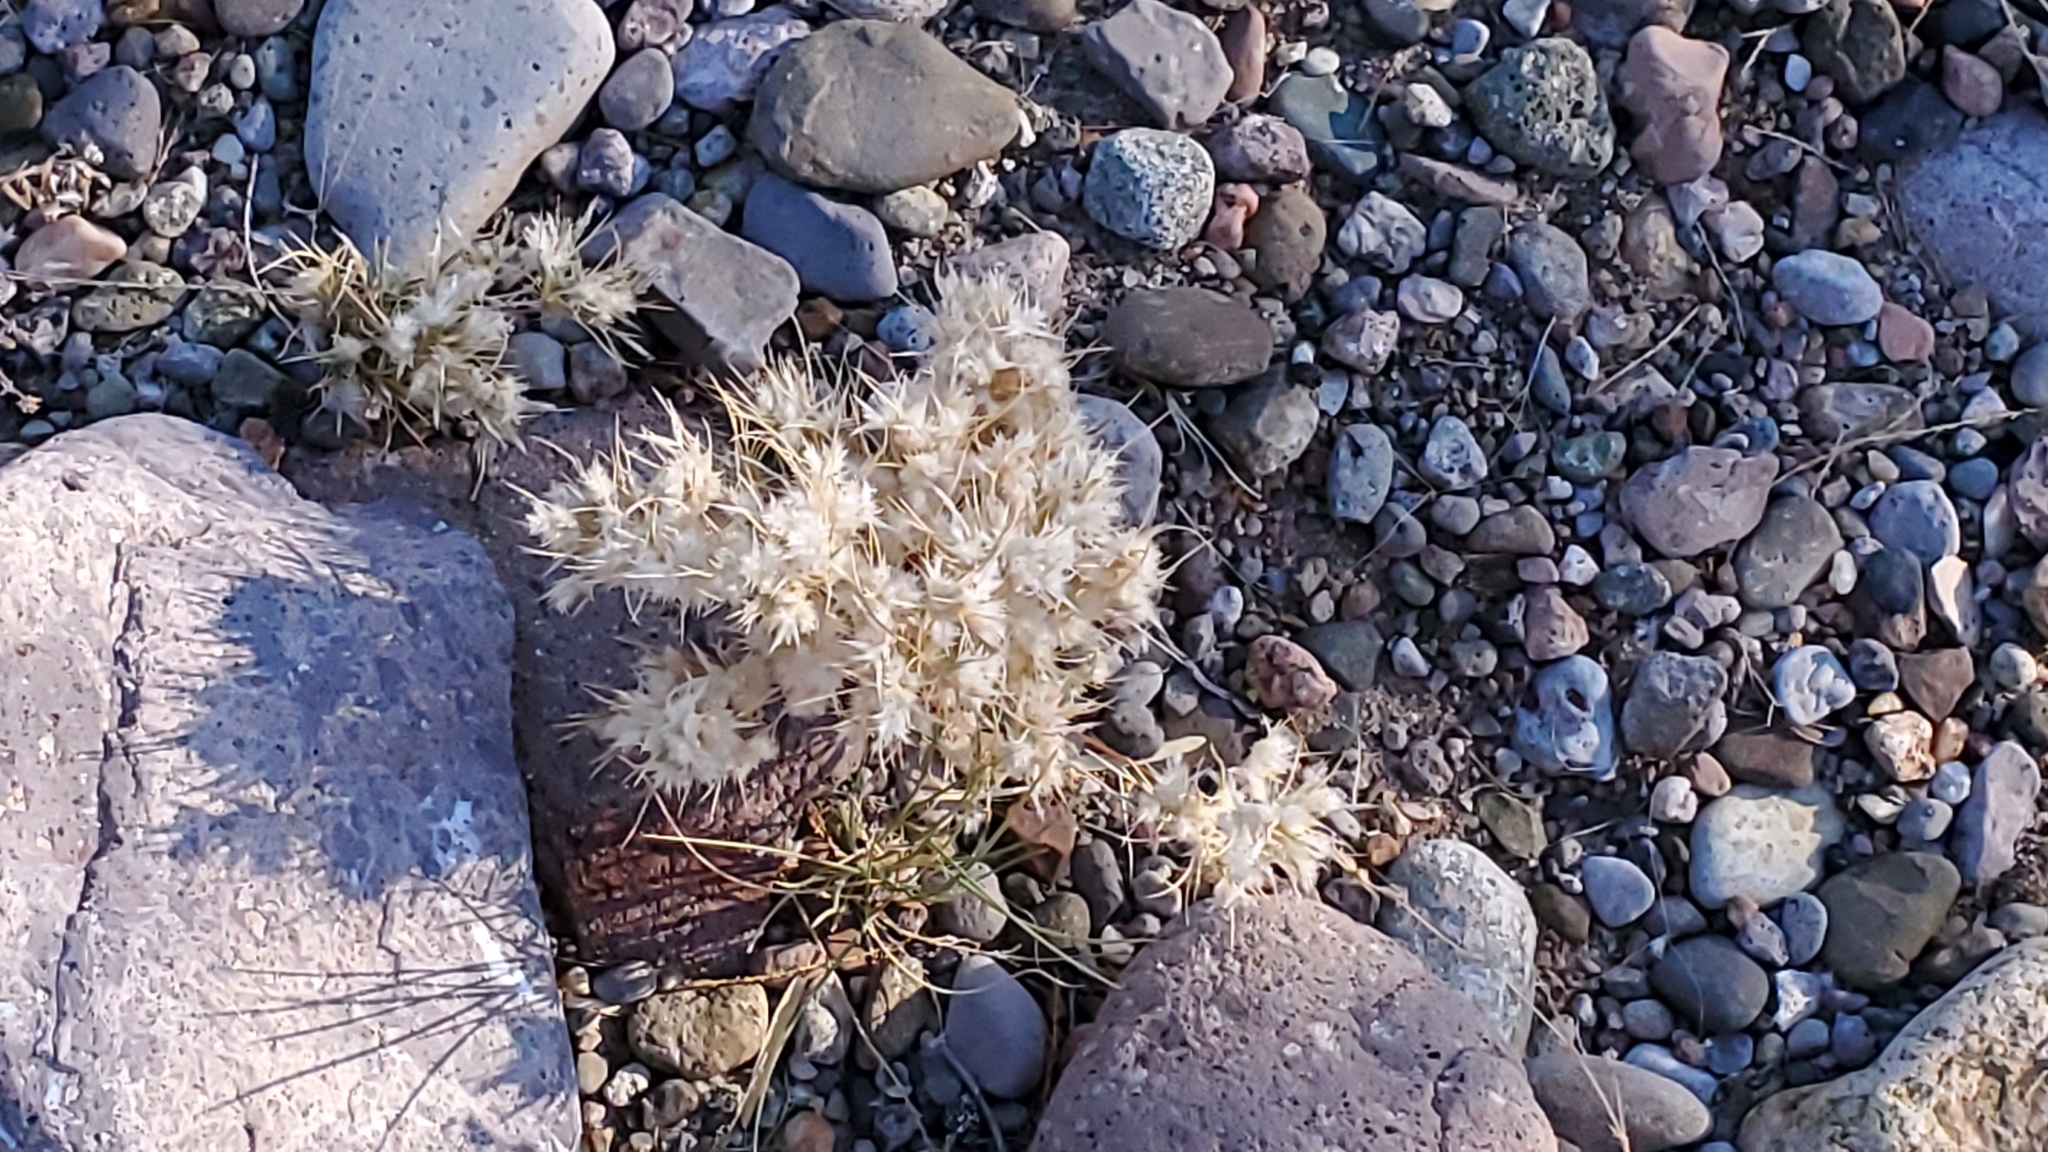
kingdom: Plantae
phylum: Tracheophyta
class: Liliopsida
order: Poales
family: Poaceae
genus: Dasyochloa
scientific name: Dasyochloa pulchella
